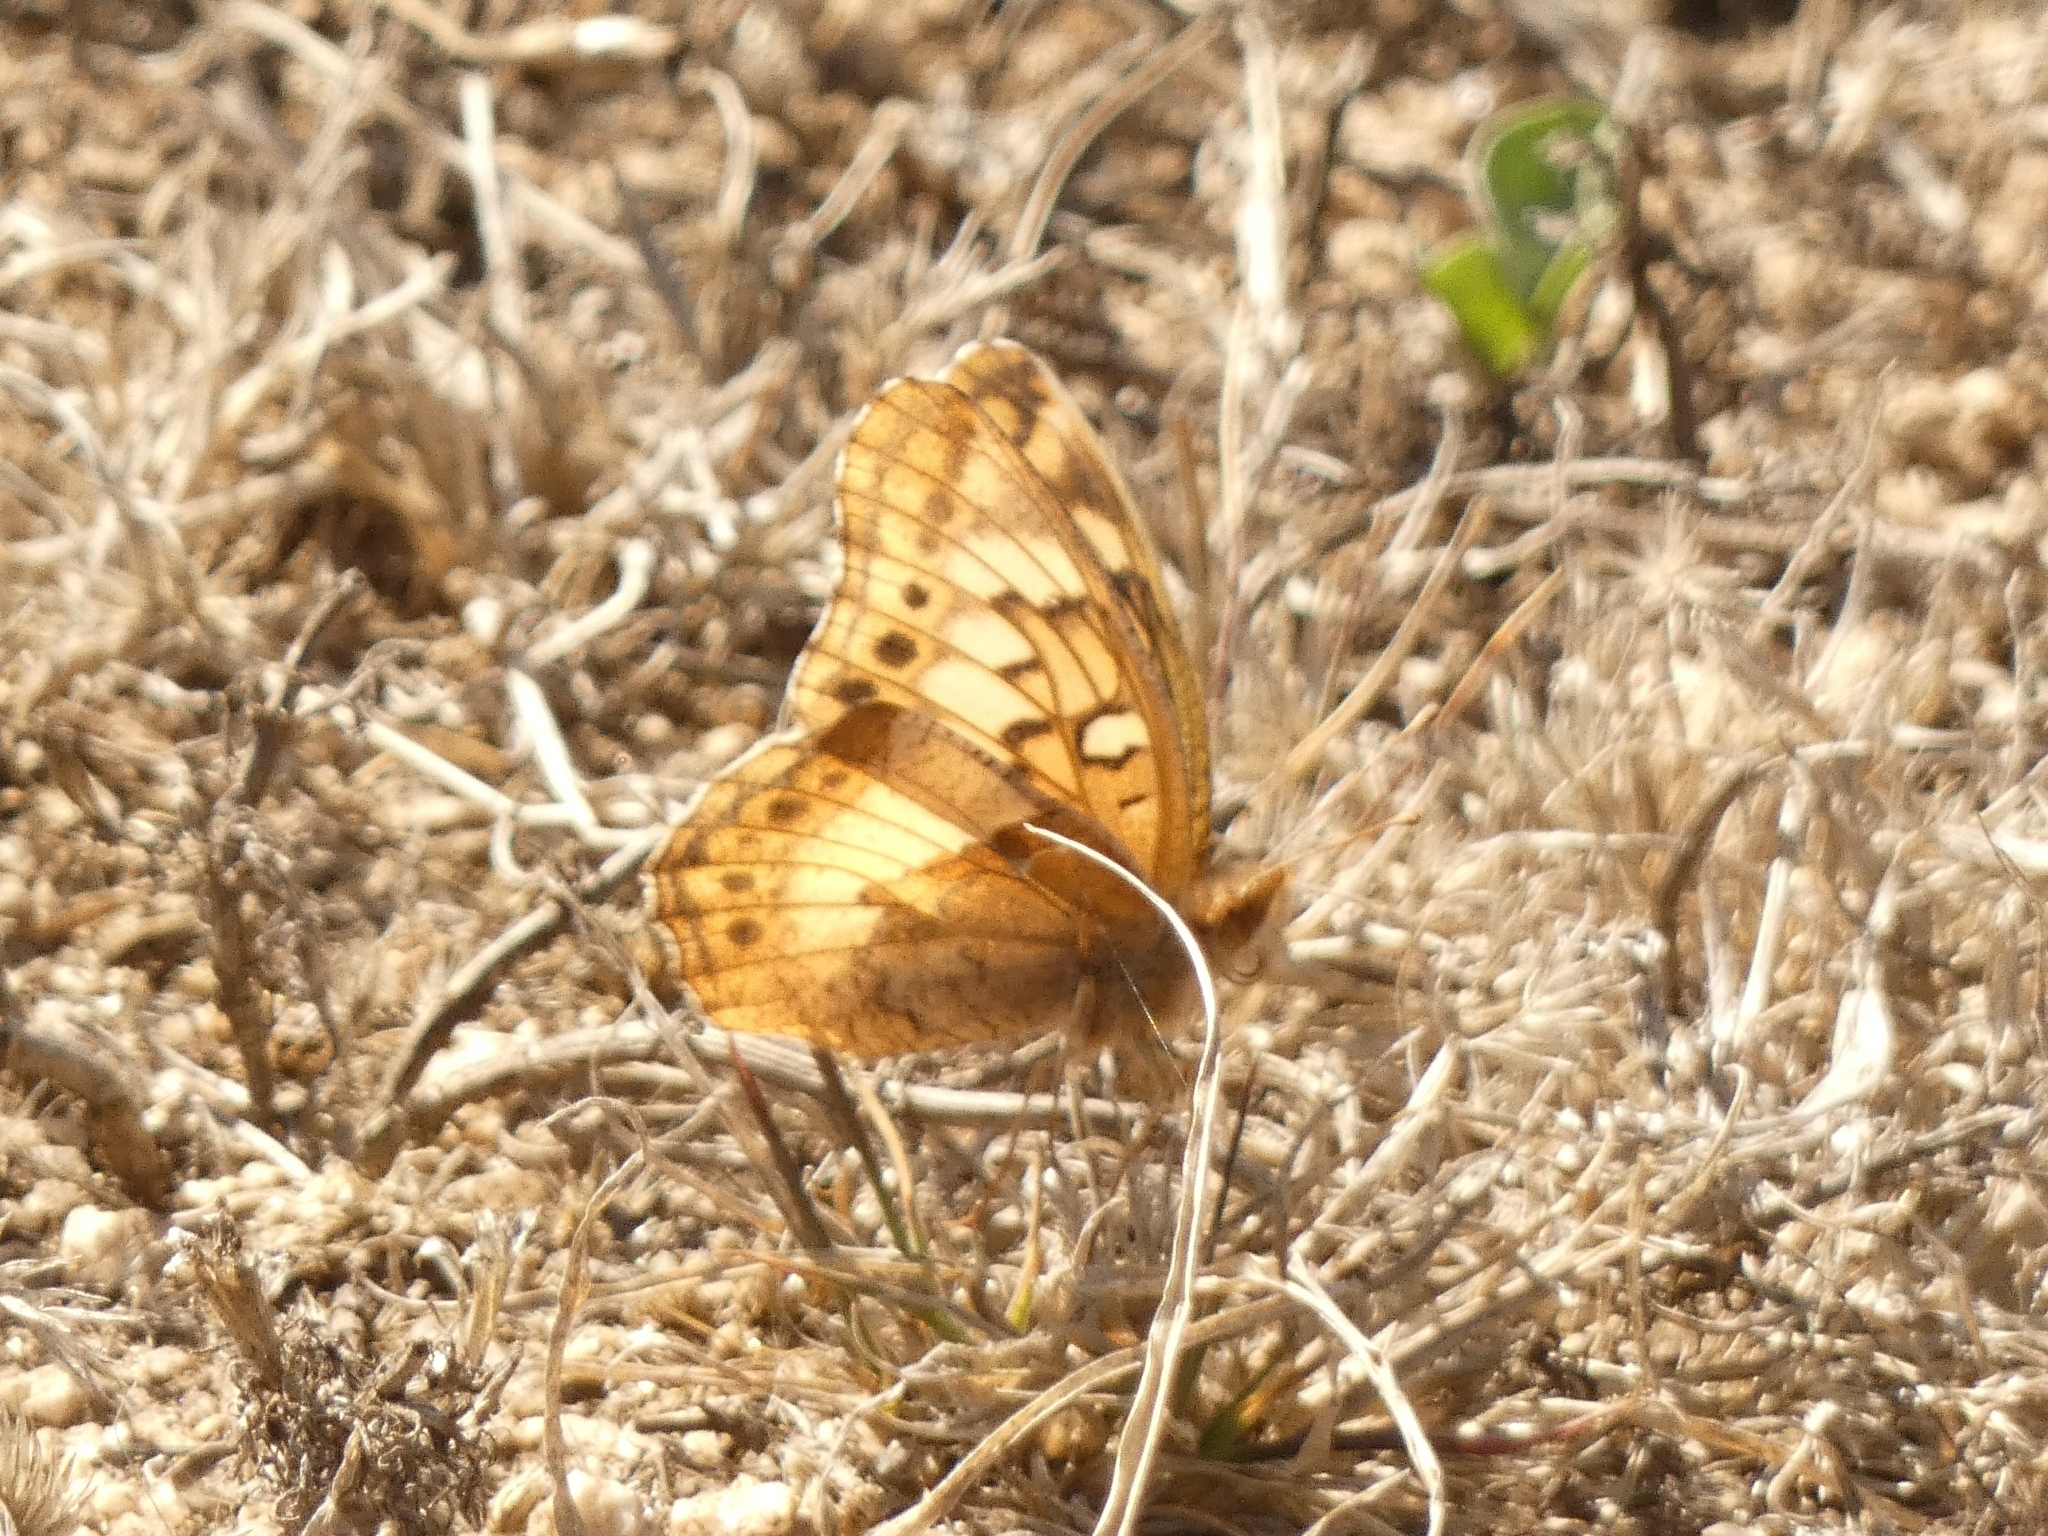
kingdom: Animalia
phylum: Arthropoda
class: Insecta
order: Lepidoptera
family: Nymphalidae
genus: Euptoieta
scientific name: Euptoieta hortensia
